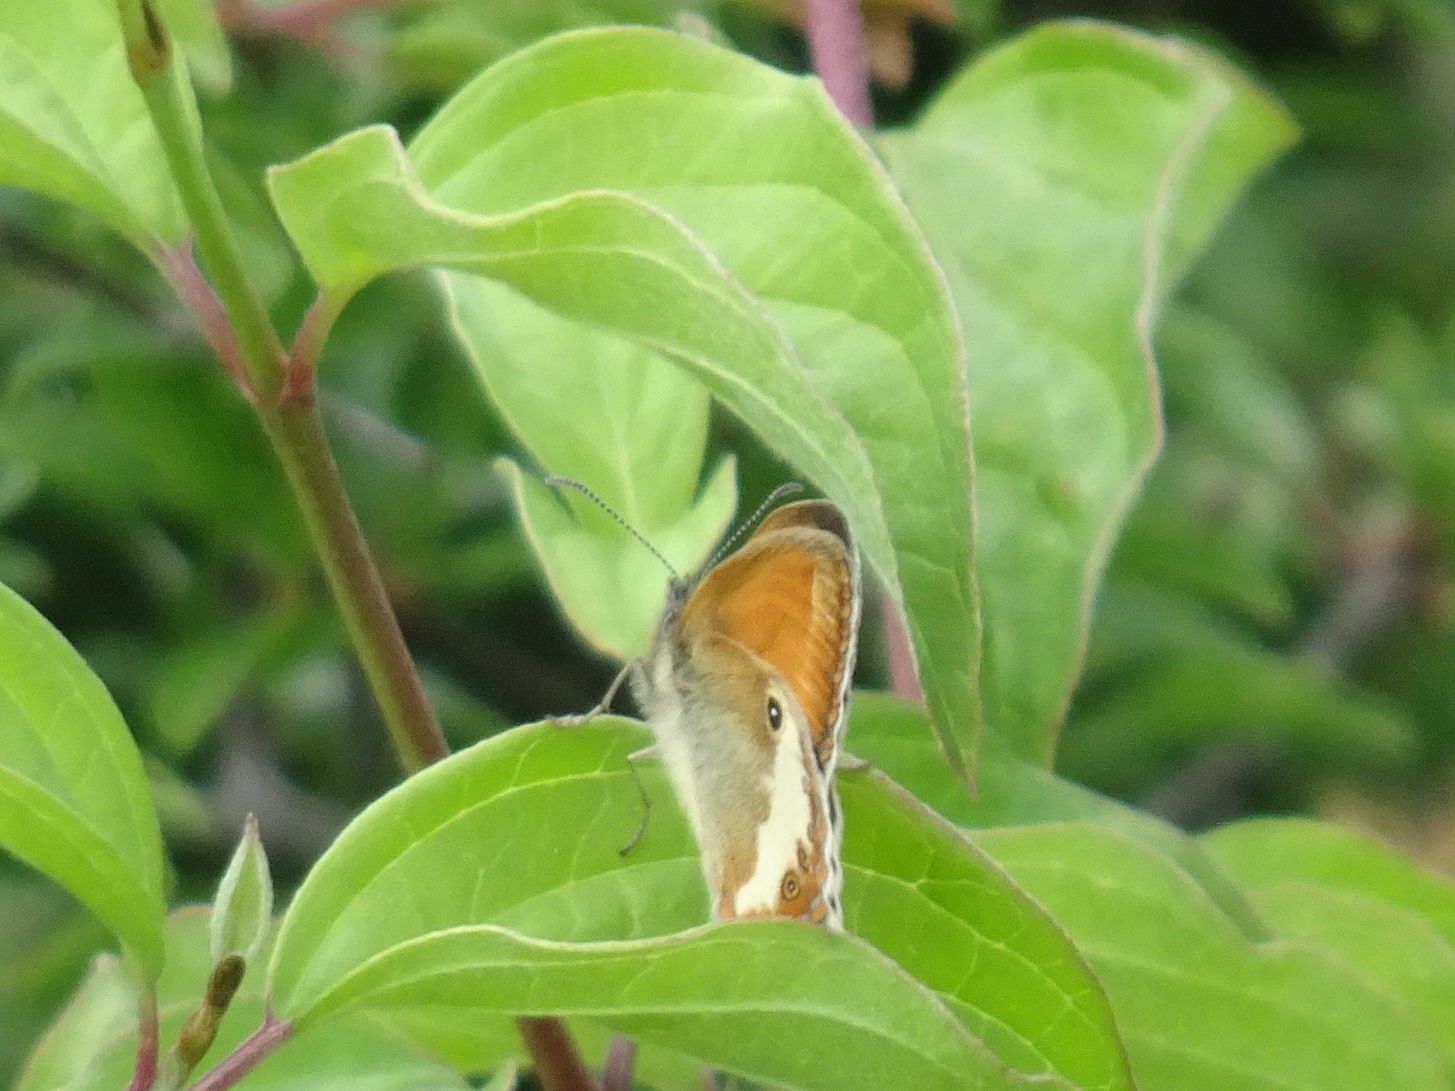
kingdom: Animalia
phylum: Arthropoda
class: Insecta
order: Lepidoptera
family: Nymphalidae
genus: Coenonympha
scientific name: Coenonympha arcania
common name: Pearly heath
